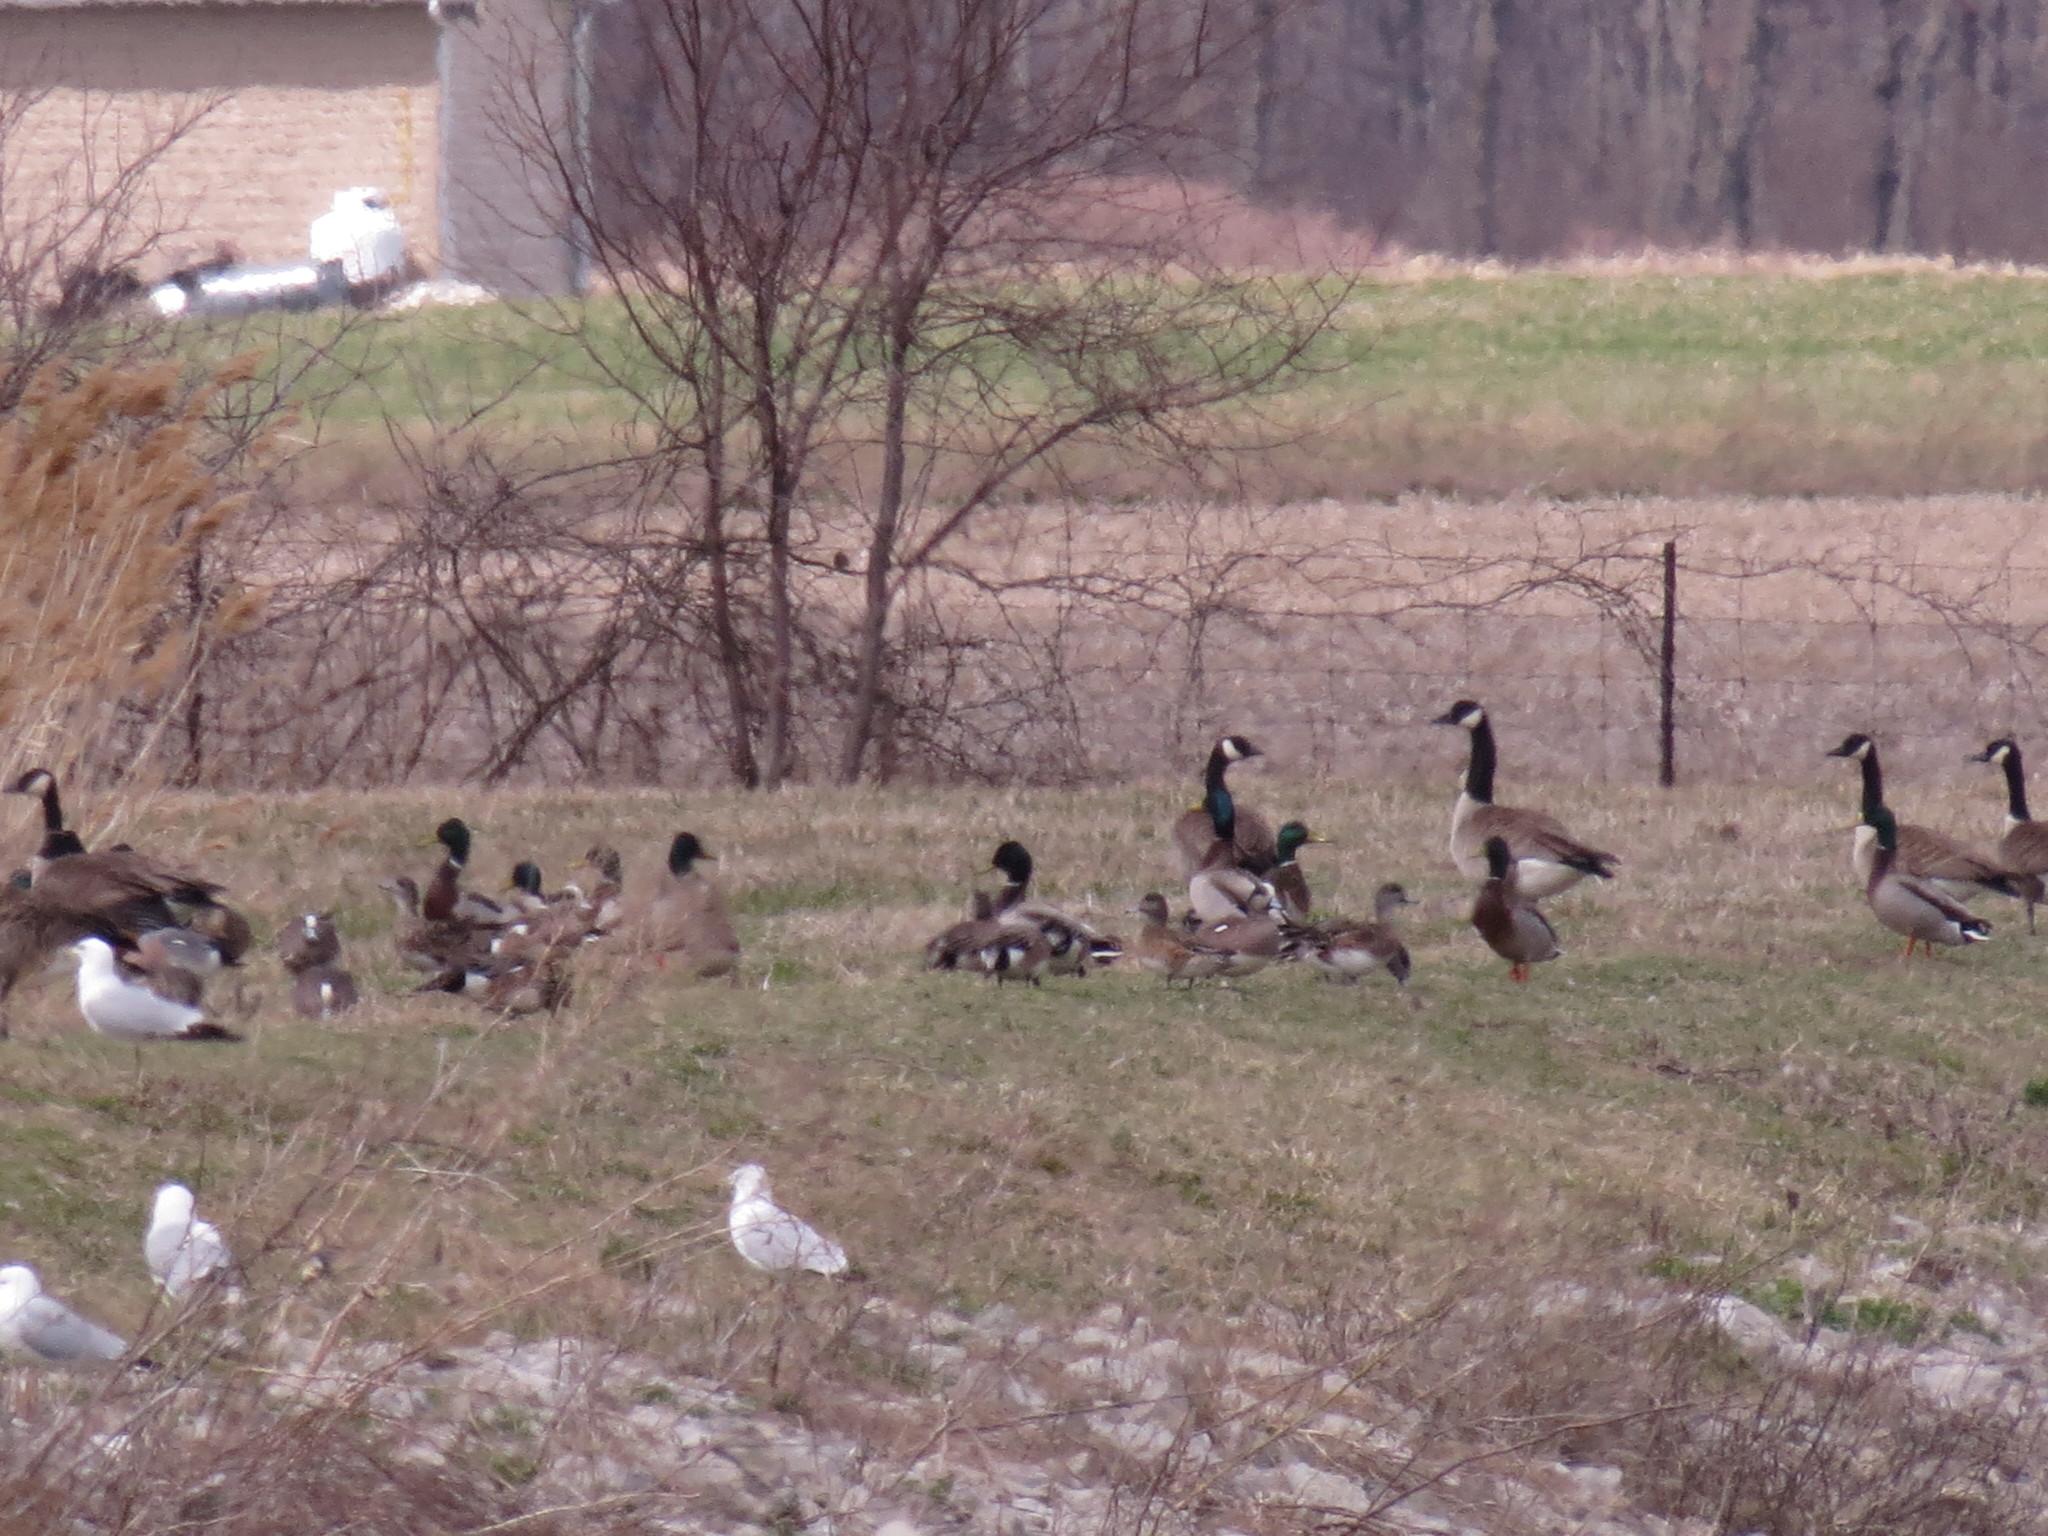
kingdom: Animalia
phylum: Chordata
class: Aves
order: Anseriformes
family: Anatidae
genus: Mareca
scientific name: Mareca americana
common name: American wigeon
